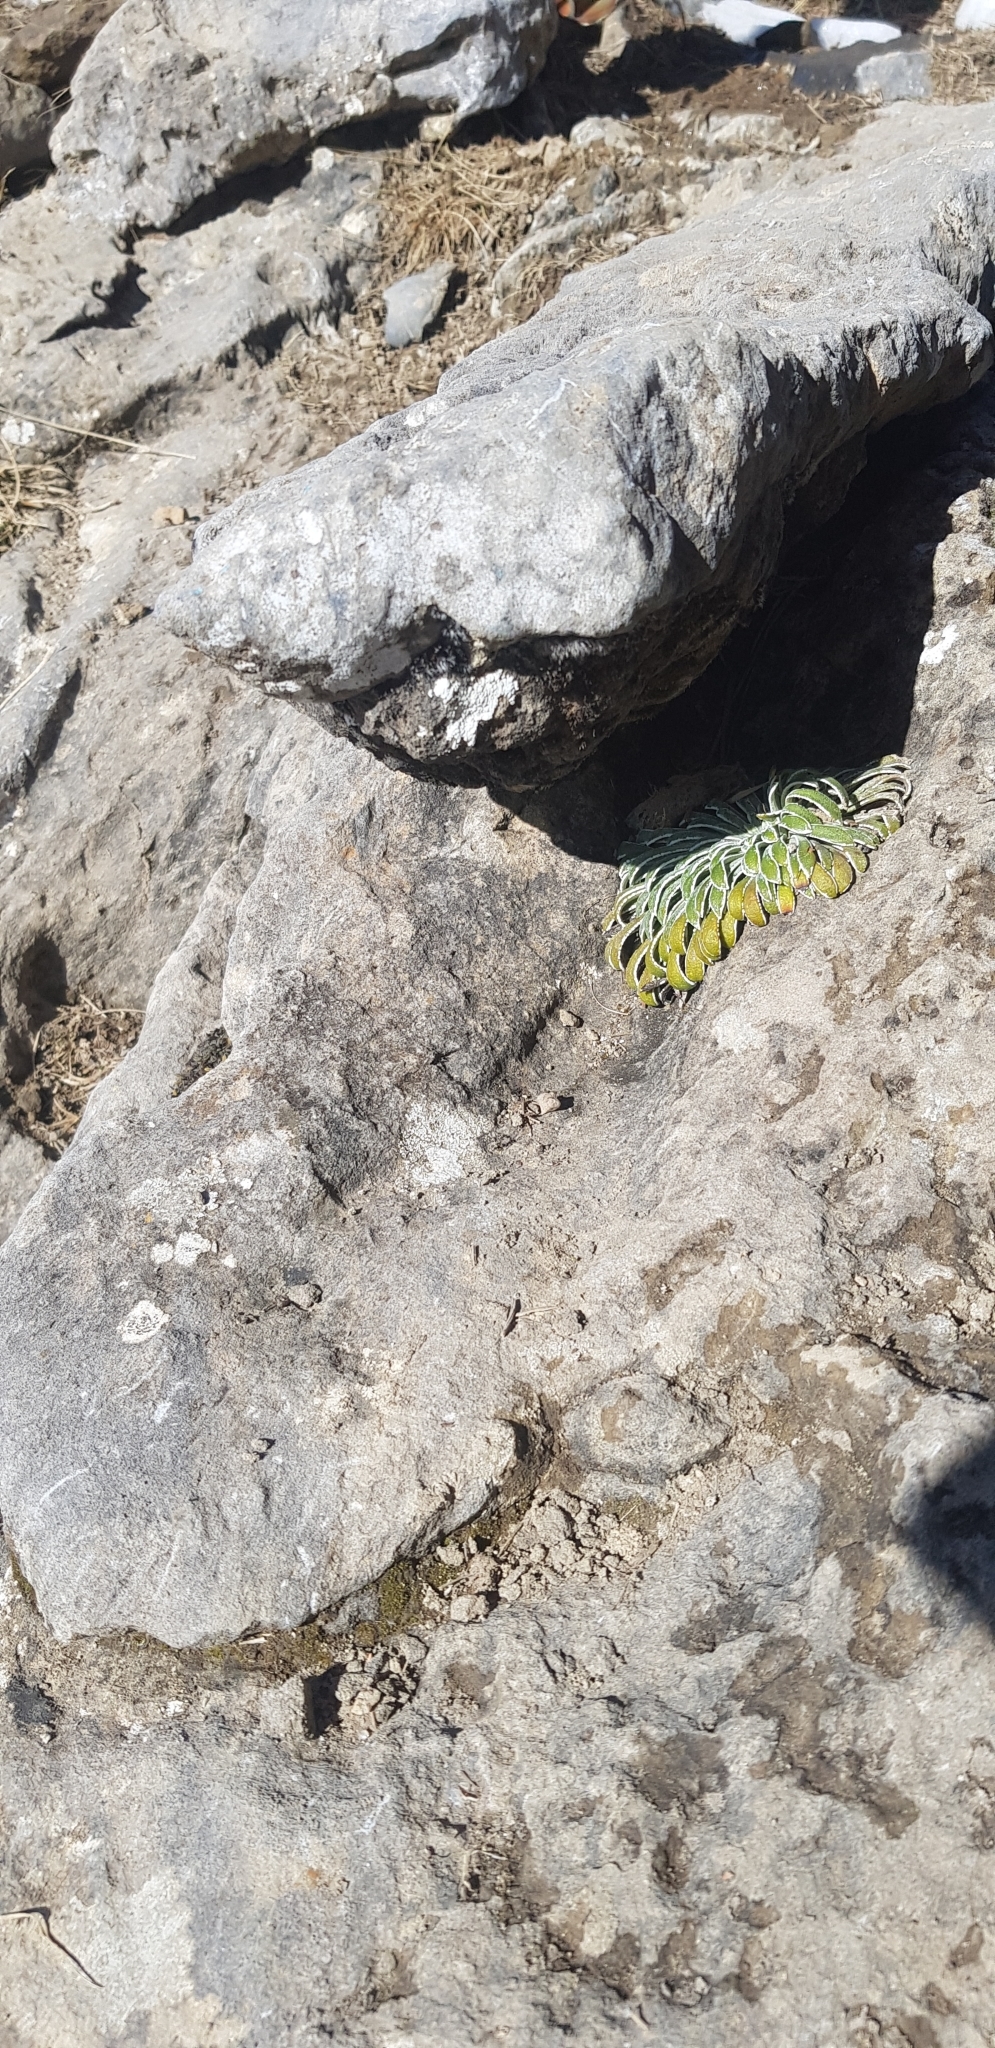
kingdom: Plantae
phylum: Tracheophyta
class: Magnoliopsida
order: Saxifragales
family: Saxifragaceae
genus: Saxifraga
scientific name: Saxifraga longifolia
